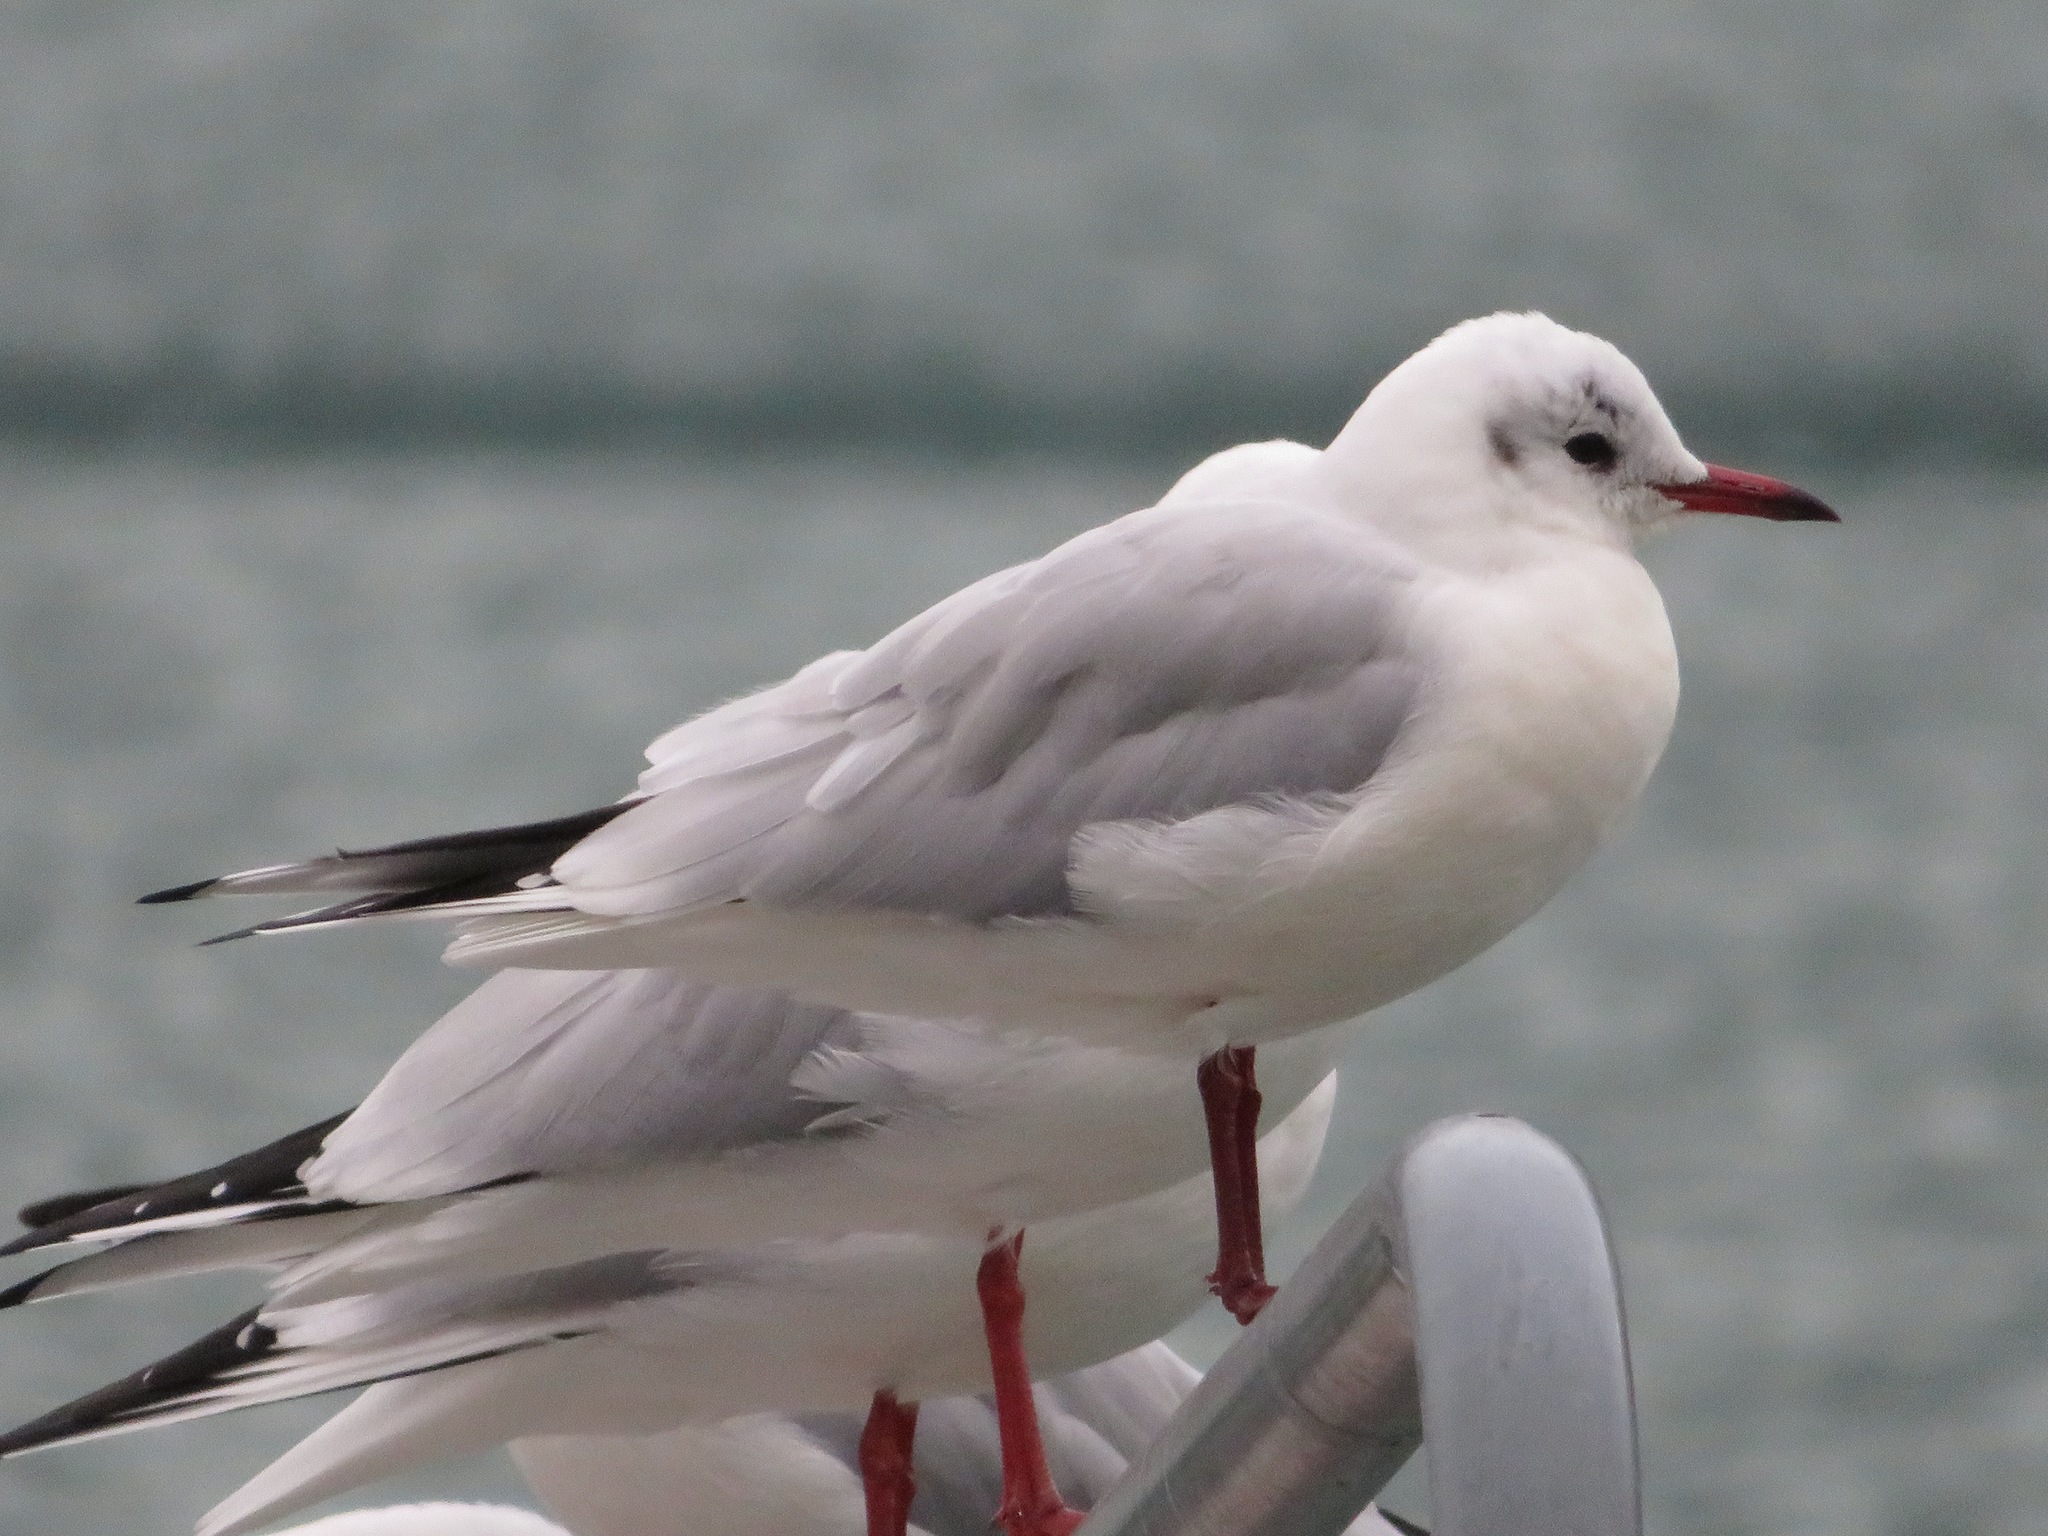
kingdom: Animalia
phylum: Chordata
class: Aves
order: Charadriiformes
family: Laridae
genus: Chroicocephalus
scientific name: Chroicocephalus ridibundus
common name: Black-headed gull
